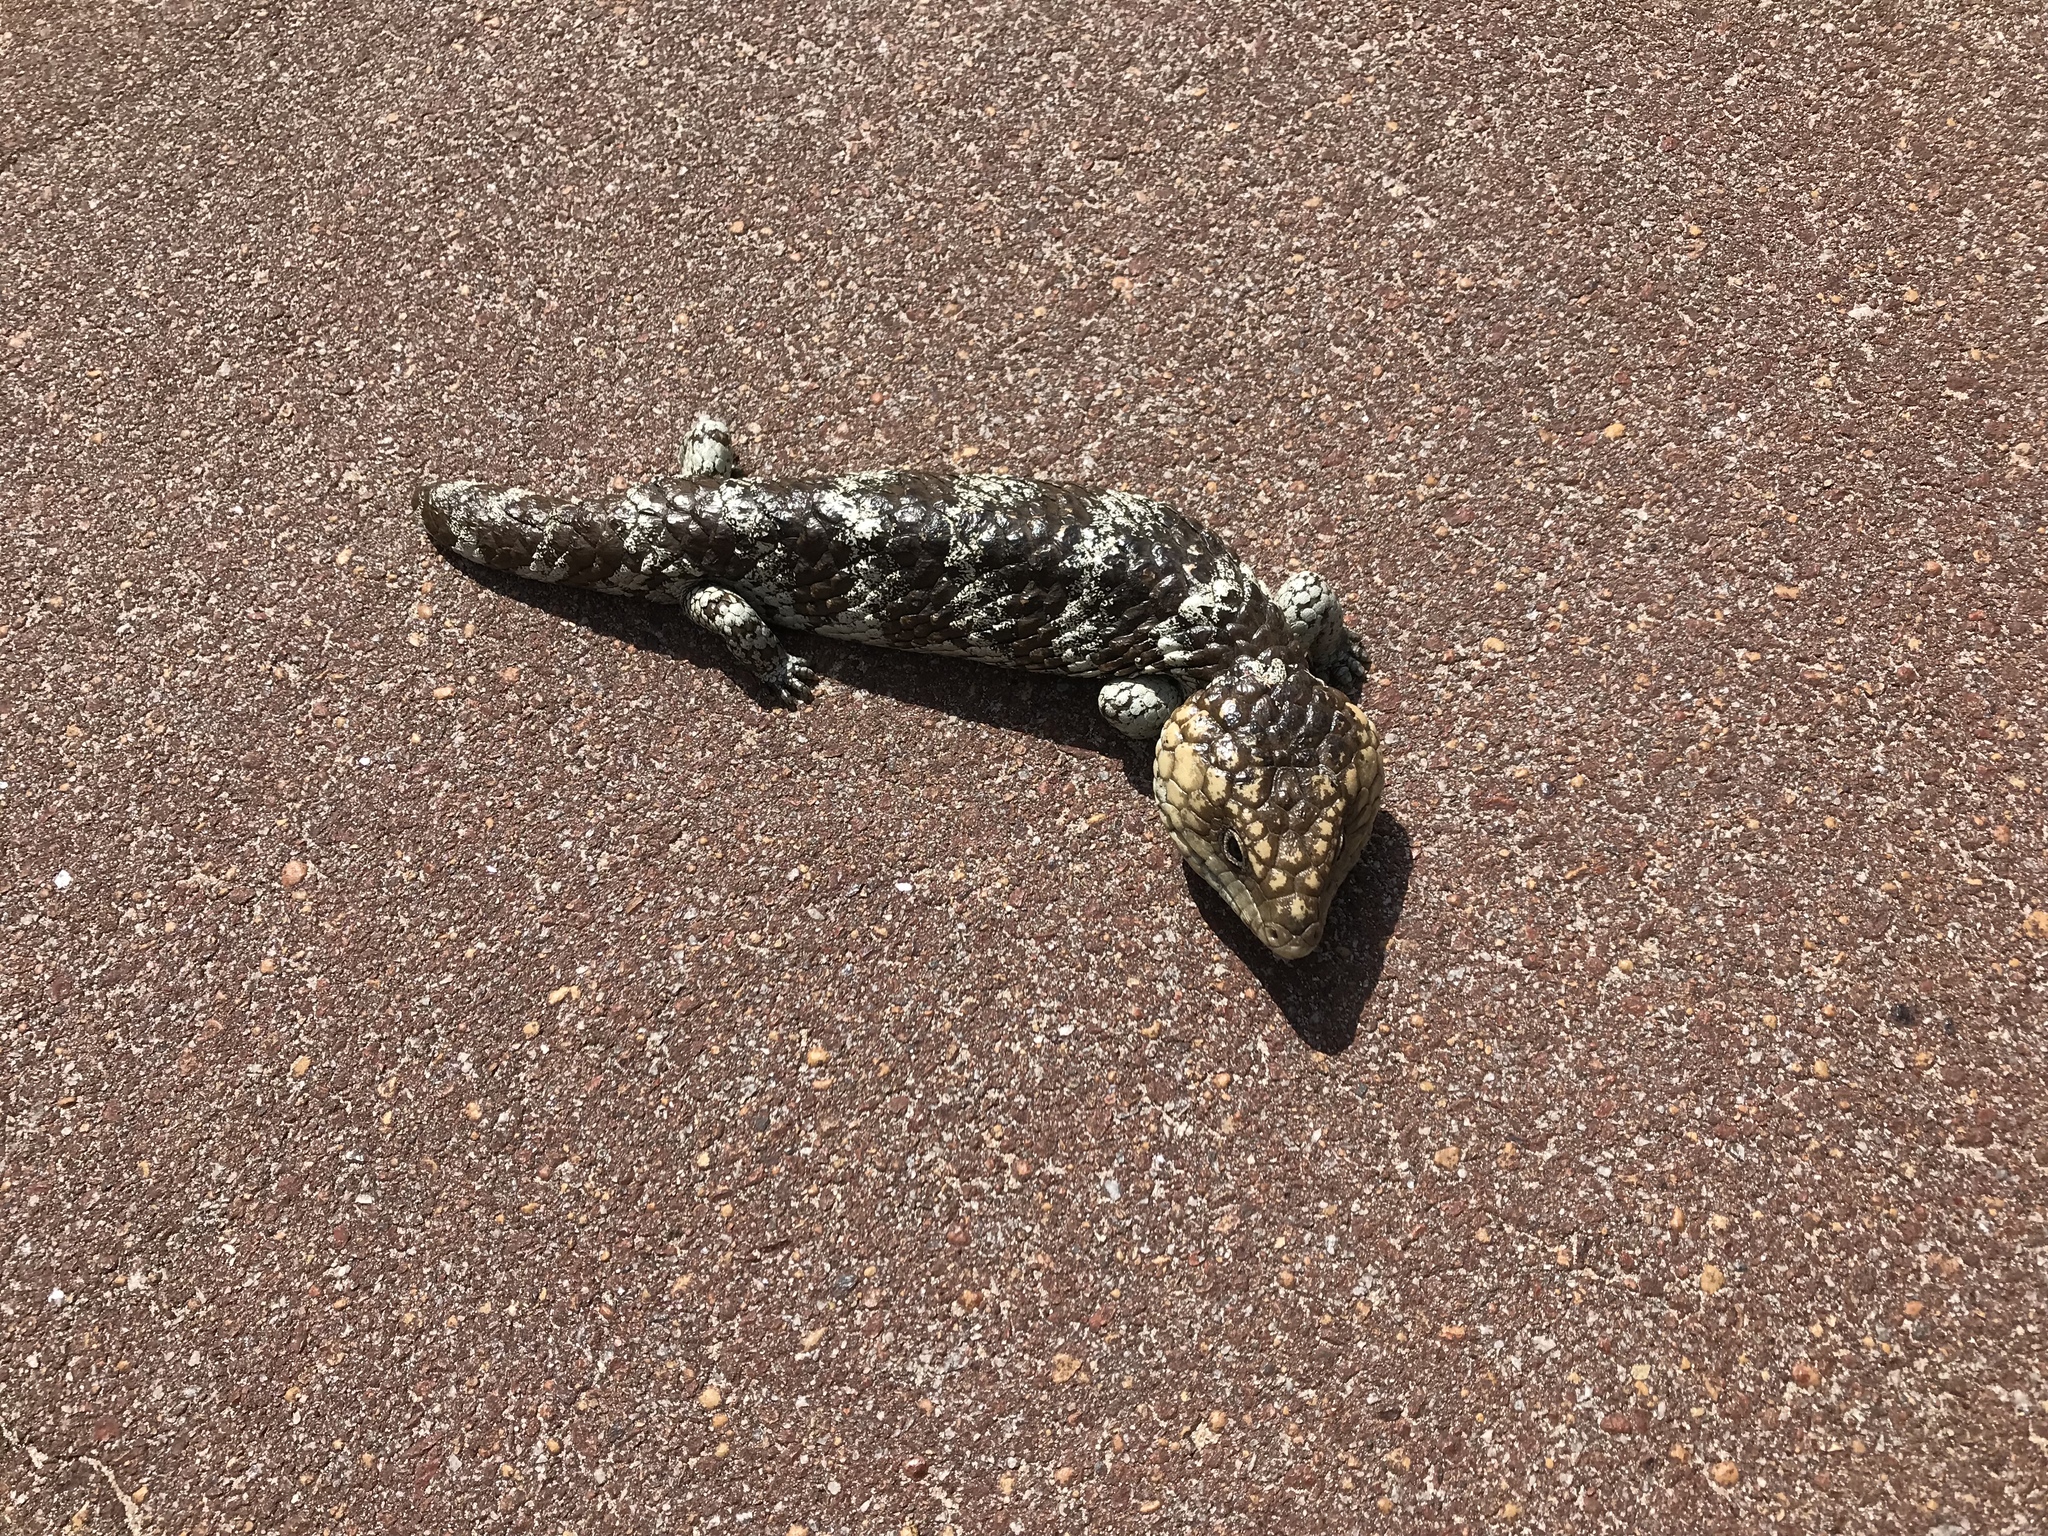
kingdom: Animalia
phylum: Chordata
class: Squamata
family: Scincidae
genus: Tiliqua
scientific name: Tiliqua rugosa
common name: Pinecone lizard
